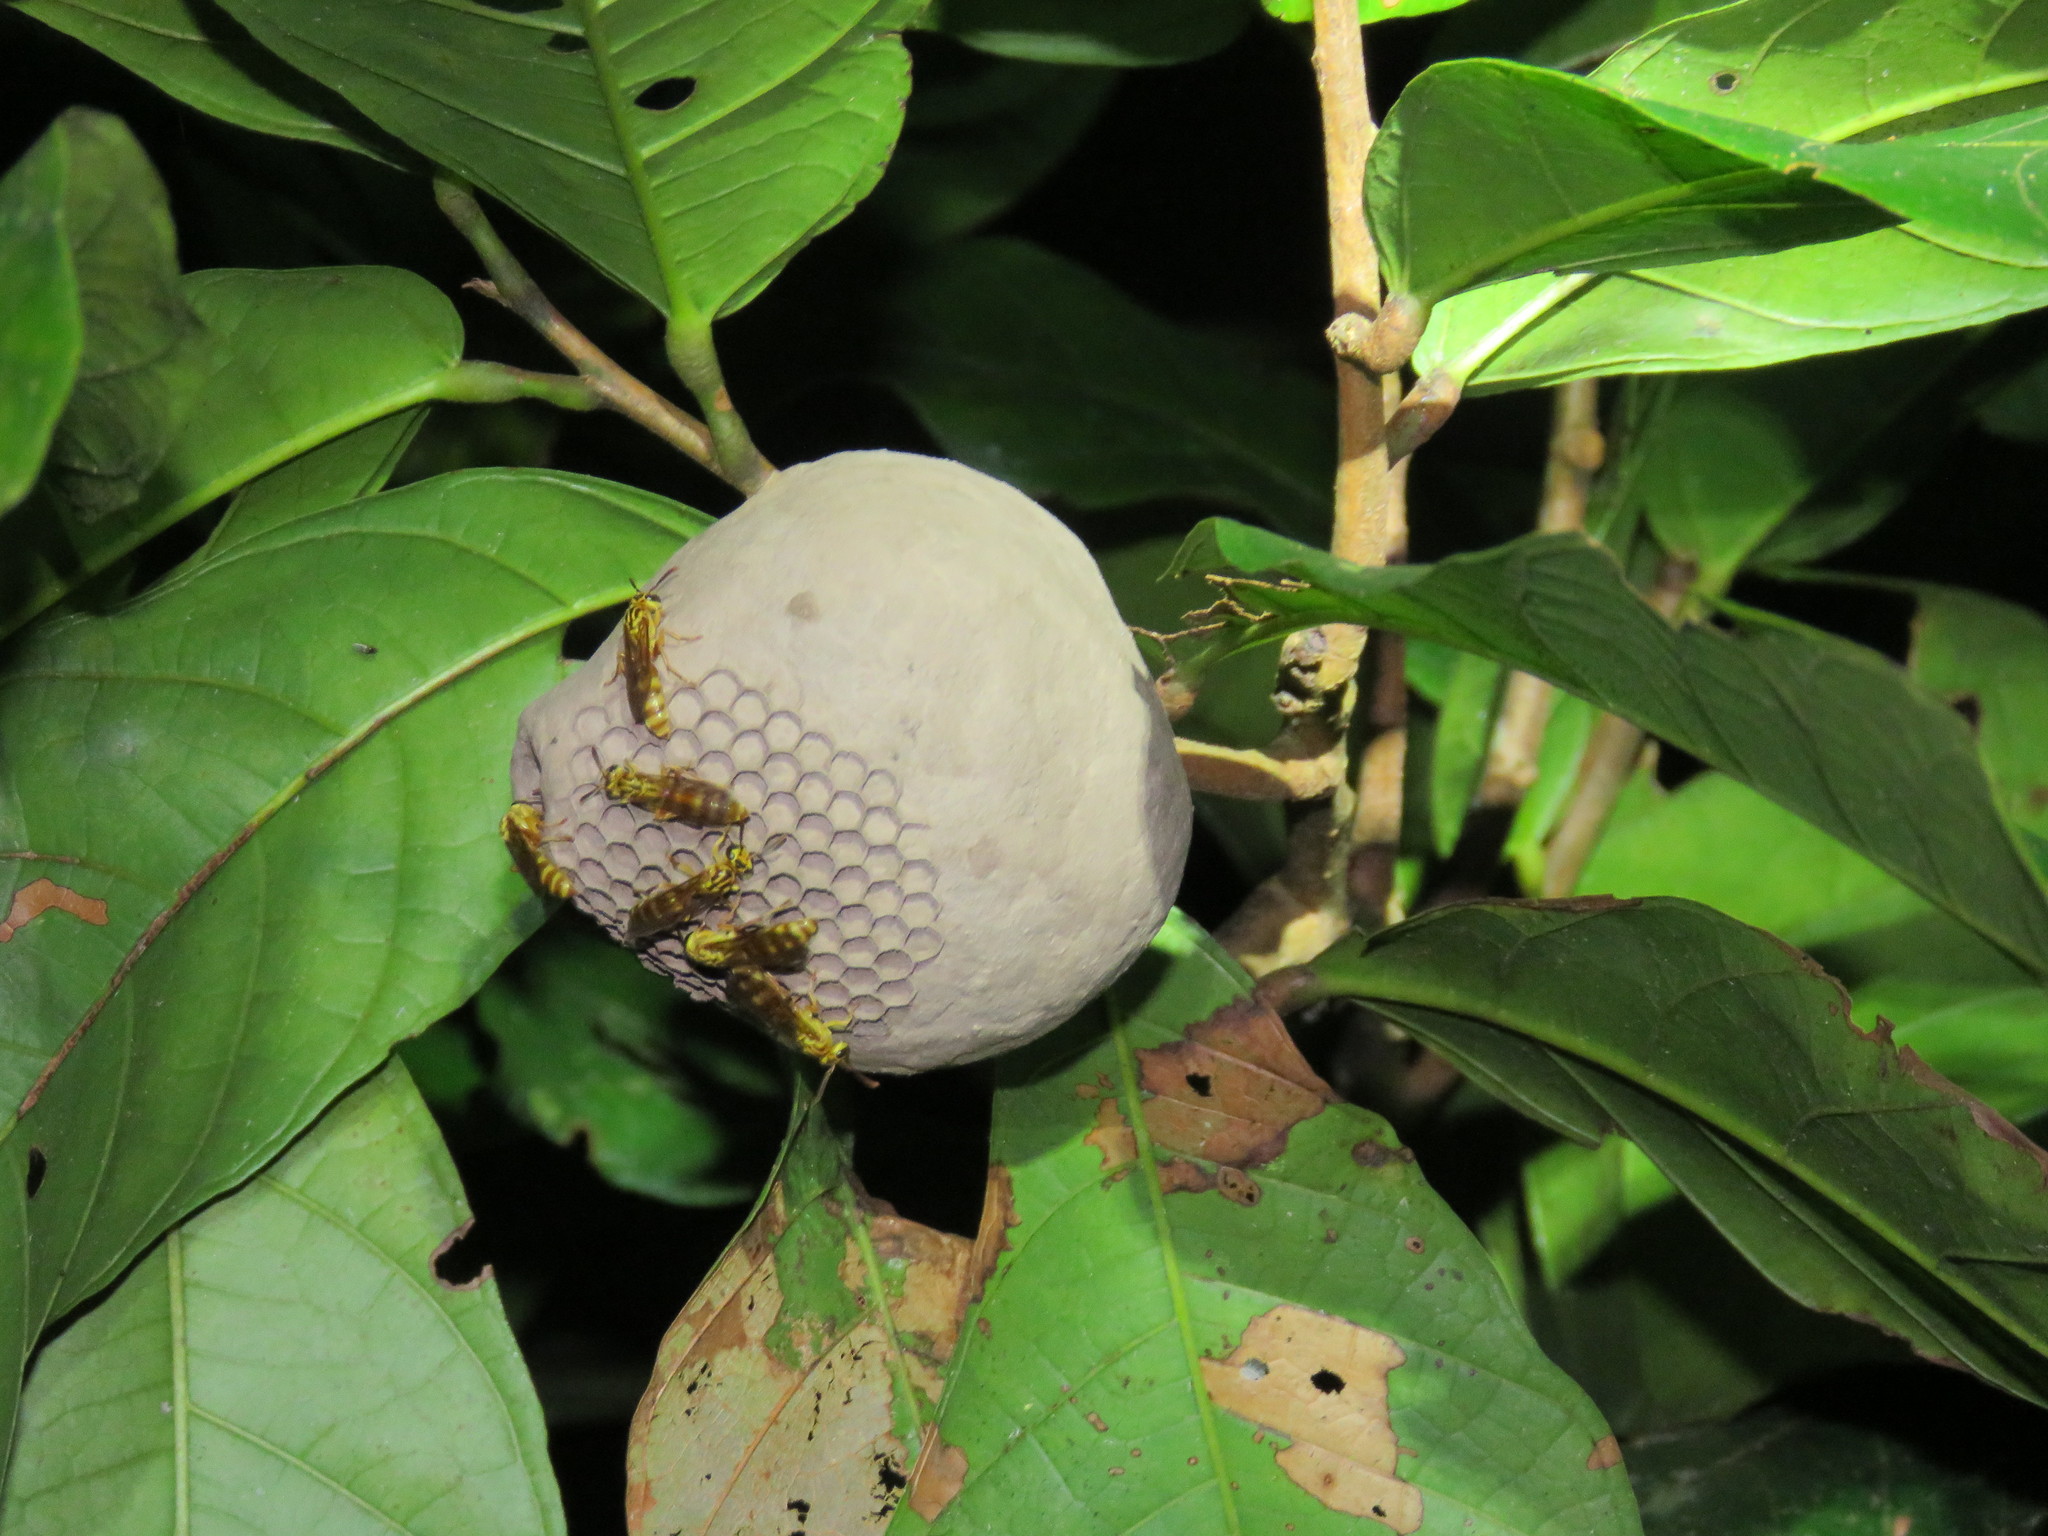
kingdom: Animalia
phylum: Arthropoda
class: Insecta
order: Hymenoptera
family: Eumenidae
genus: Polybia
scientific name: Polybia emaciata
